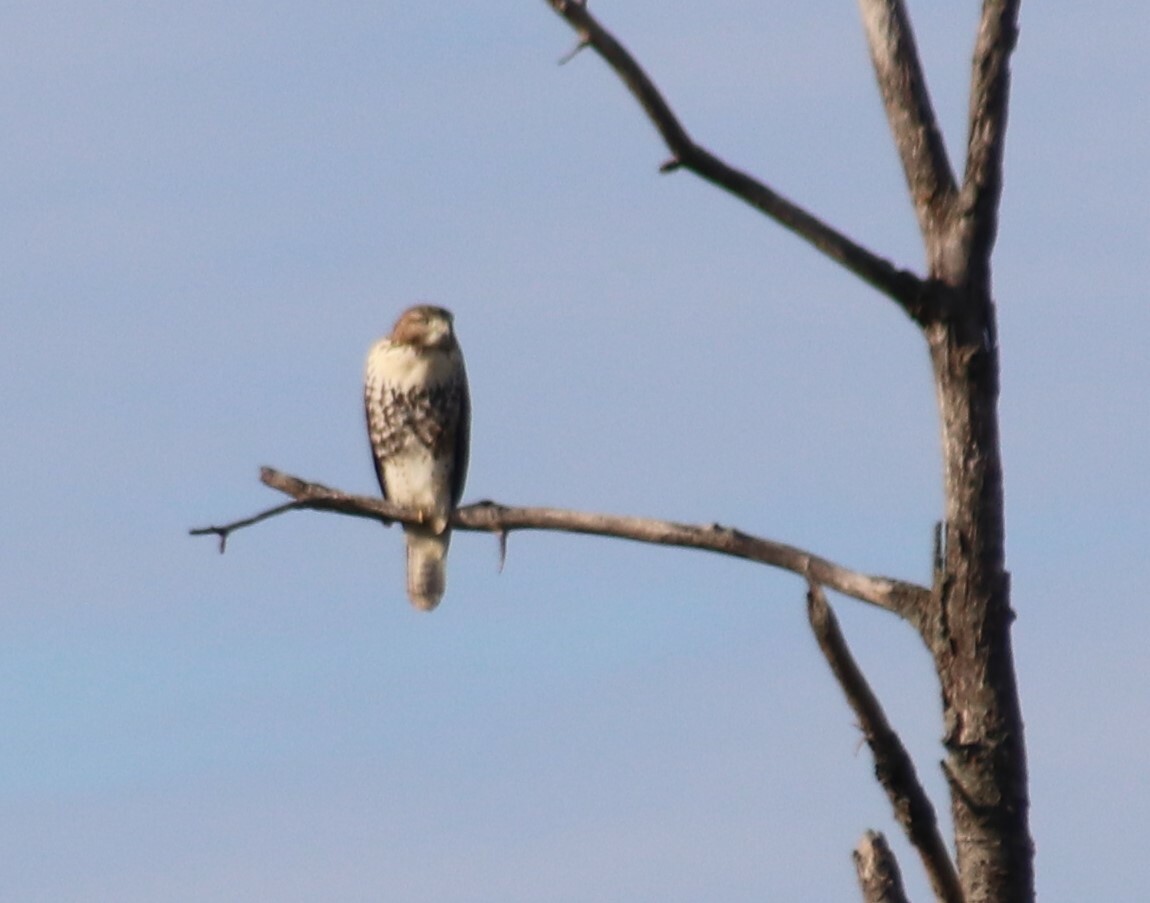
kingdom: Animalia
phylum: Chordata
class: Aves
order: Accipitriformes
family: Accipitridae
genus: Buteo
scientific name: Buteo jamaicensis
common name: Red-tailed hawk
